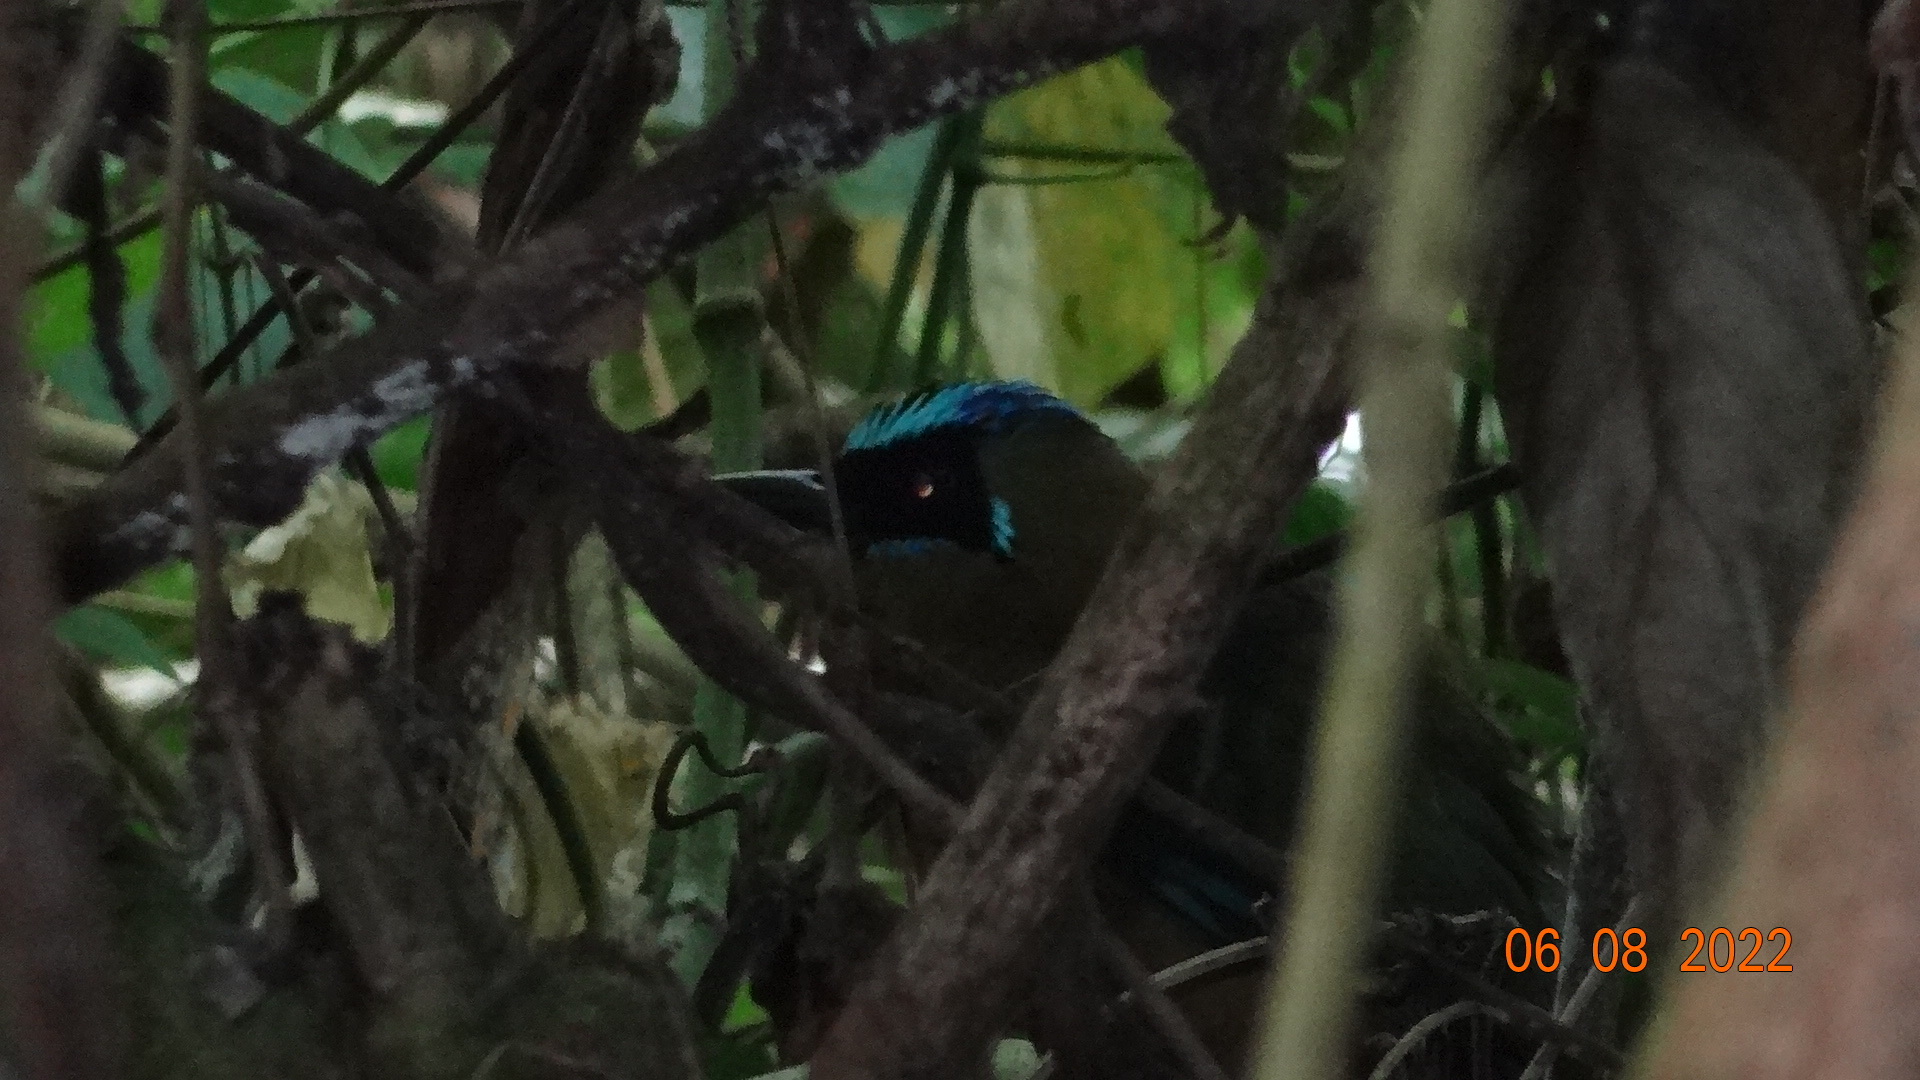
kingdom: Animalia
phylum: Chordata
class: Aves
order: Coraciiformes
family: Momotidae
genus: Momotus
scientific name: Momotus subrufescens
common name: Whooping motmot
